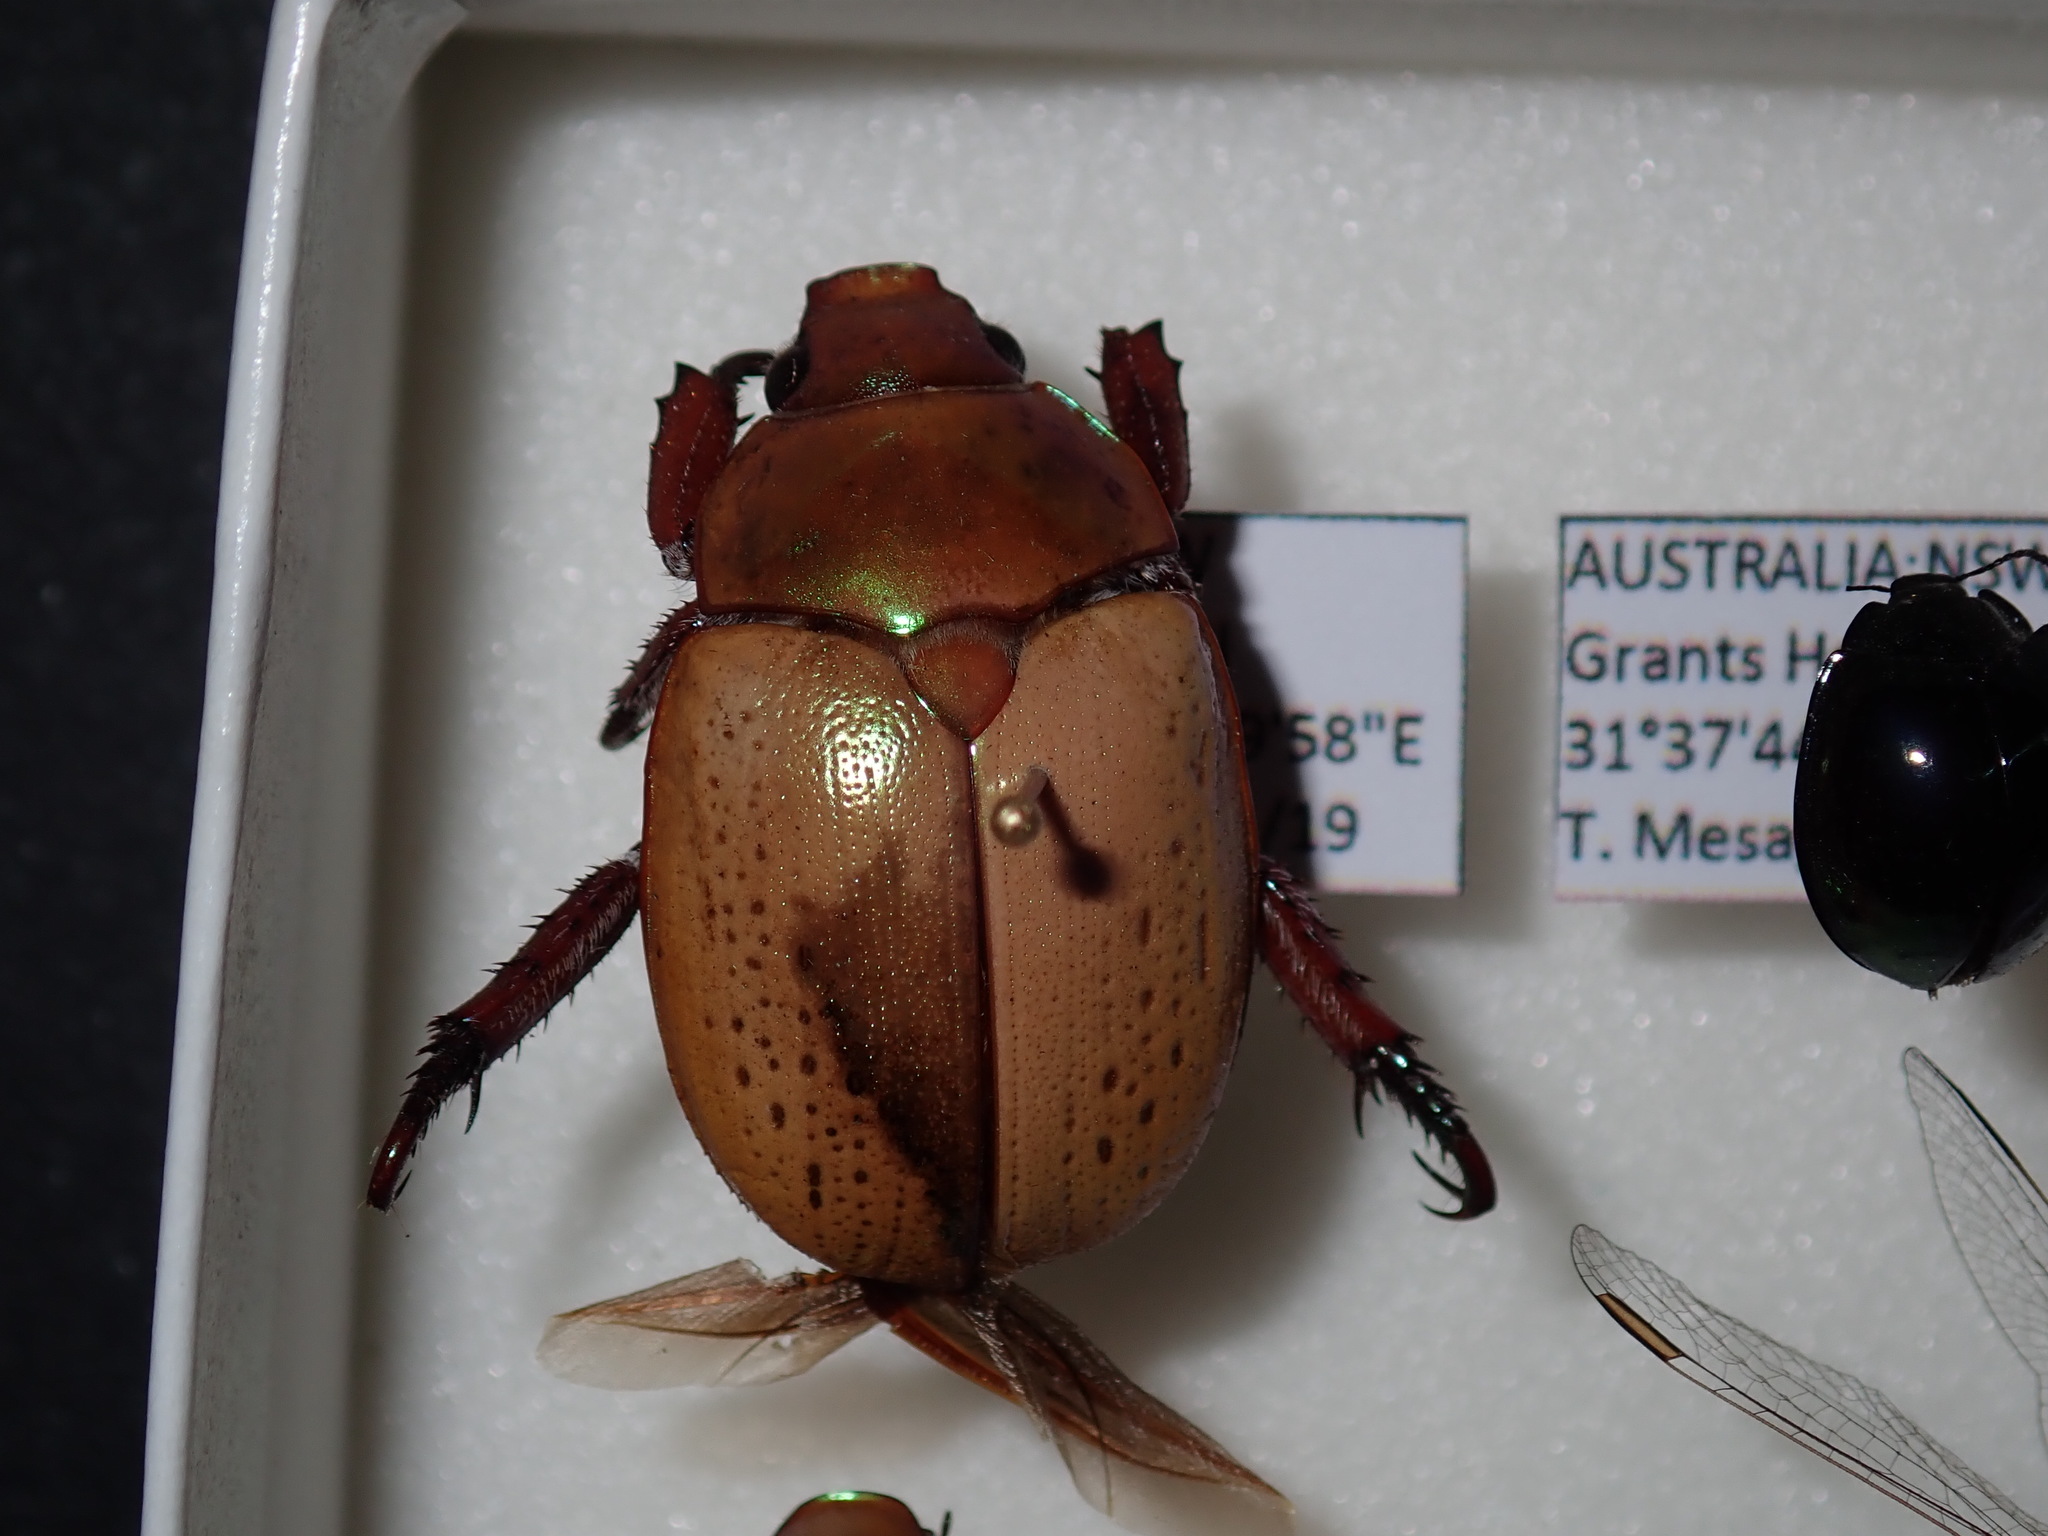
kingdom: Animalia
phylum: Arthropoda
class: Insecta
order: Coleoptera
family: Scarabaeidae
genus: Anoplognathus
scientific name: Anoplognathus olivieri
